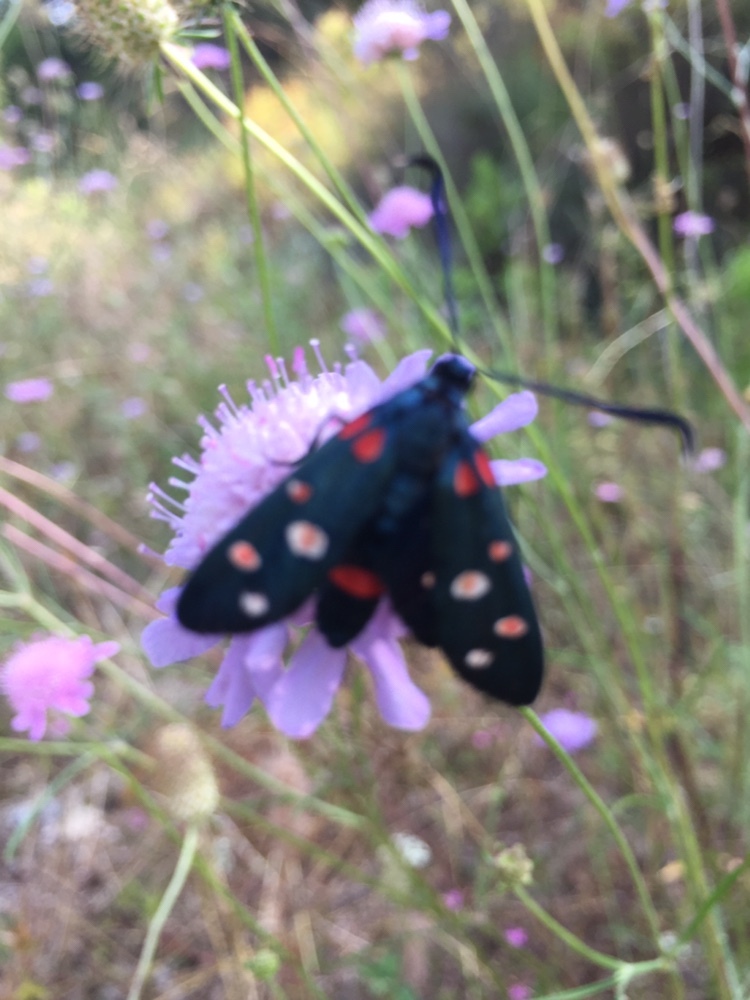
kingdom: Animalia
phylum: Arthropoda
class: Insecta
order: Lepidoptera
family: Zygaenidae
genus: Zygaena
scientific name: Zygaena ephialtes
